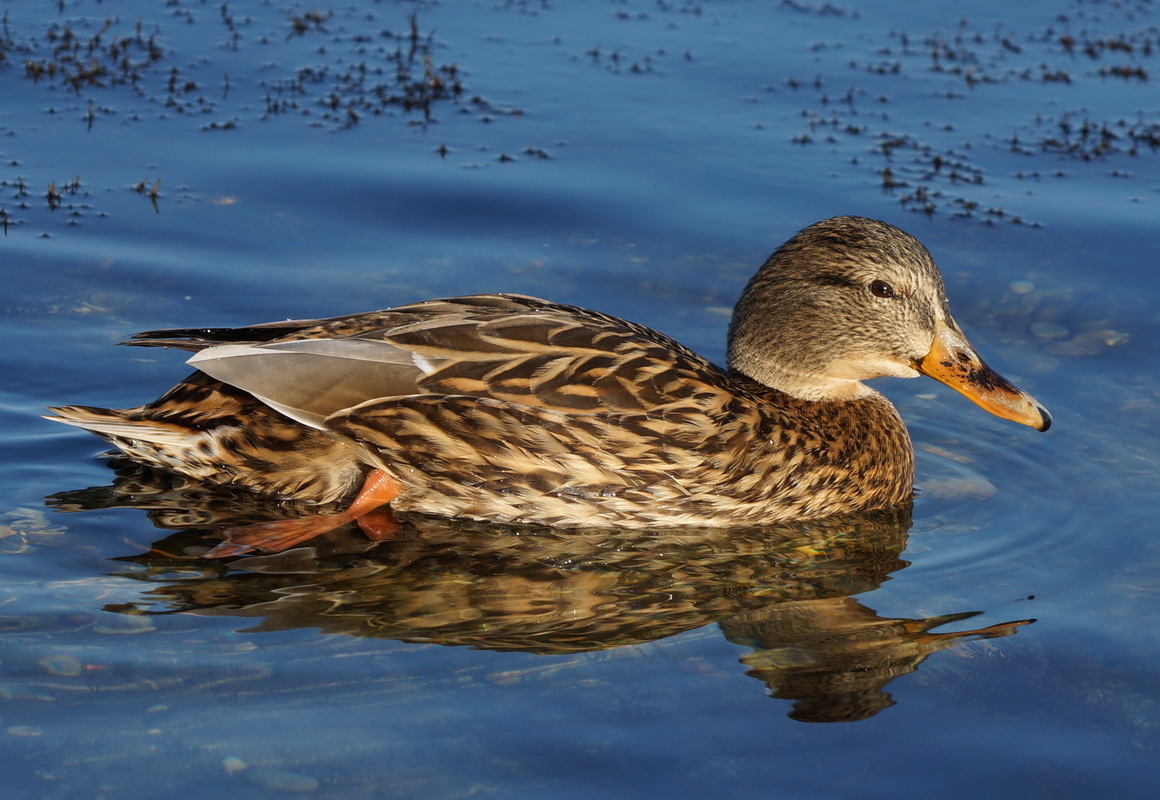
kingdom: Animalia
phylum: Chordata
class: Aves
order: Anseriformes
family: Anatidae
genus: Anas
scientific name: Anas platyrhynchos
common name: Mallard
